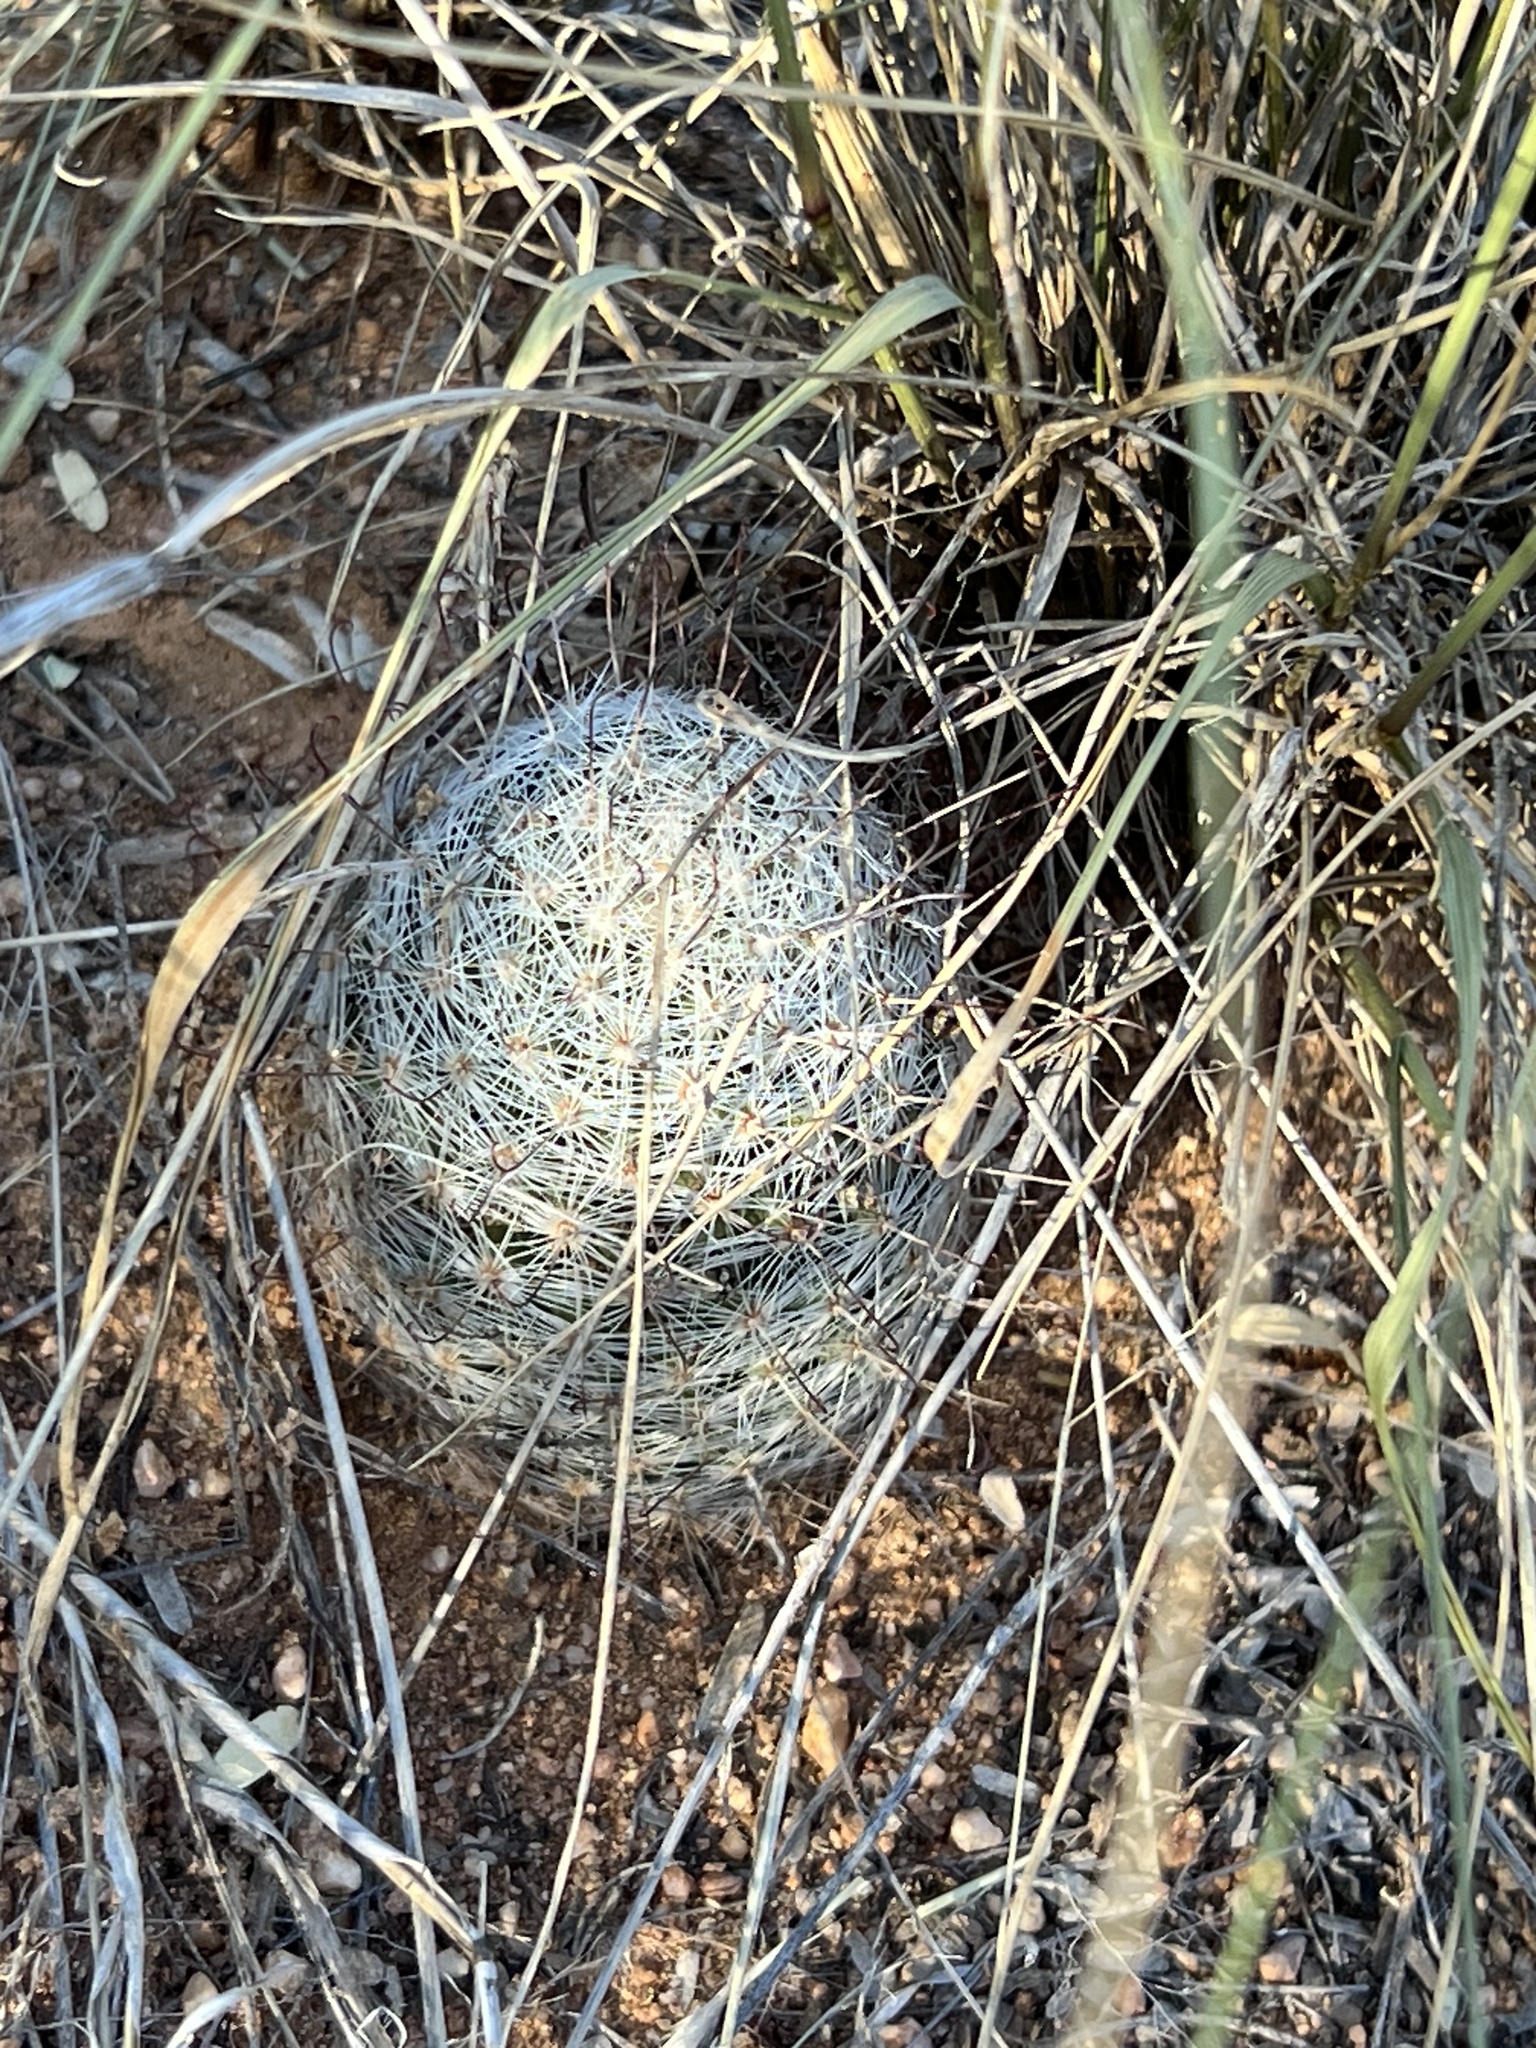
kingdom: Plantae
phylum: Tracheophyta
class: Magnoliopsida
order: Caryophyllales
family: Cactaceae
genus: Cochemiea
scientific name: Cochemiea grahamii
